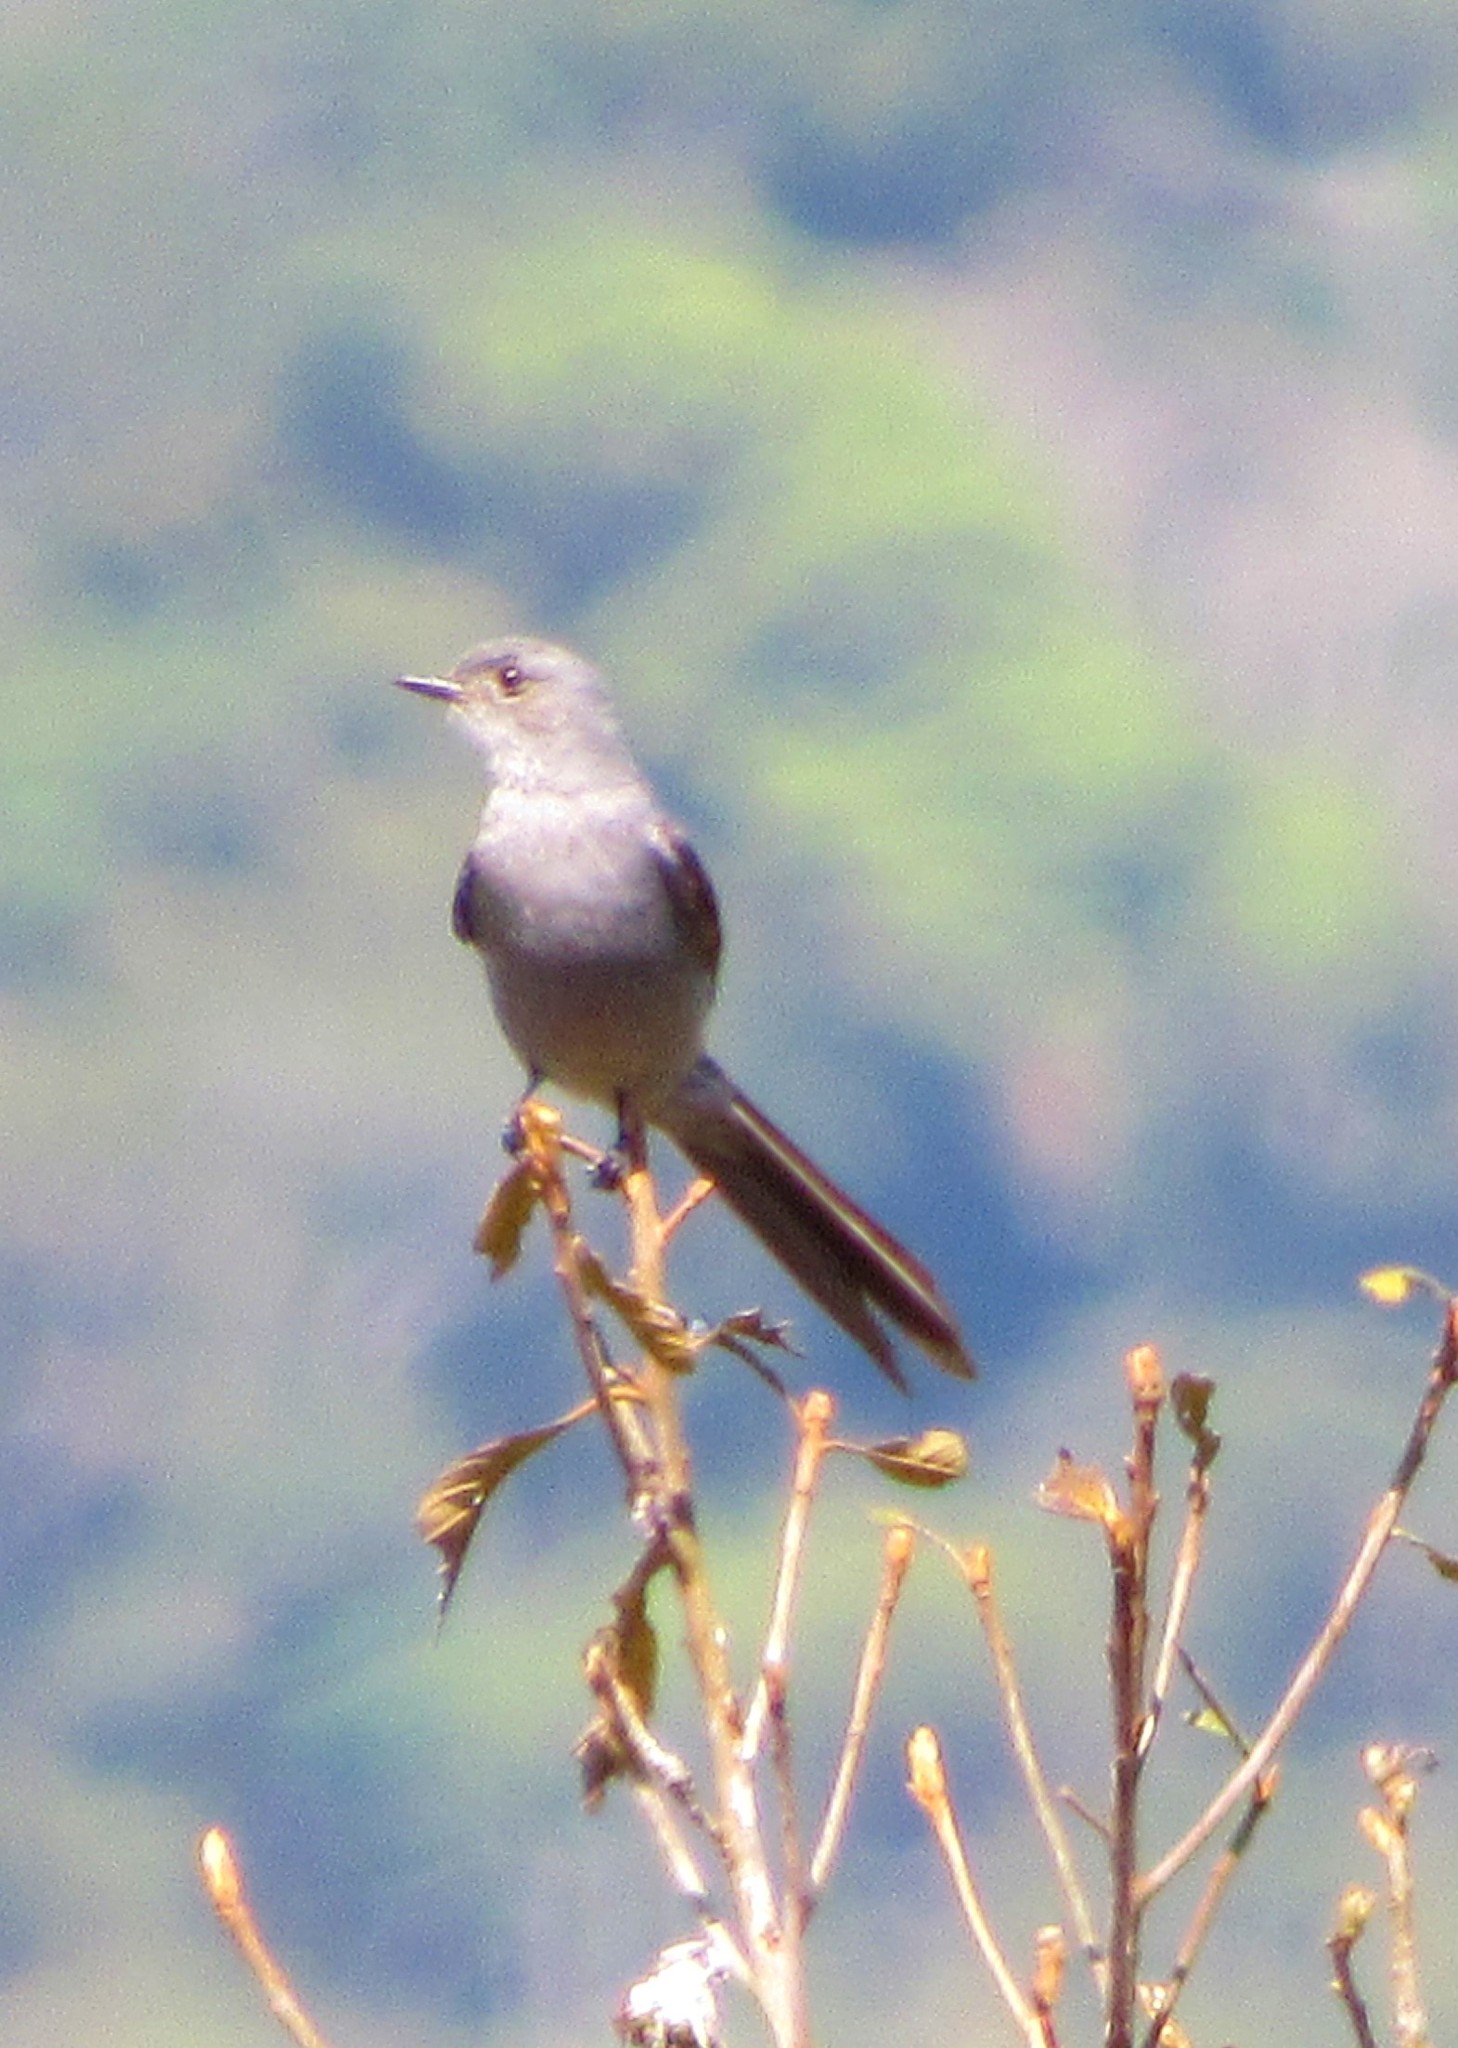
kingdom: Animalia
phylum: Chordata
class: Aves
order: Passeriformes
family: Tyrannidae
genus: Muscipipra
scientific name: Muscipipra vetula
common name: Shear-tailed grey tyrant
